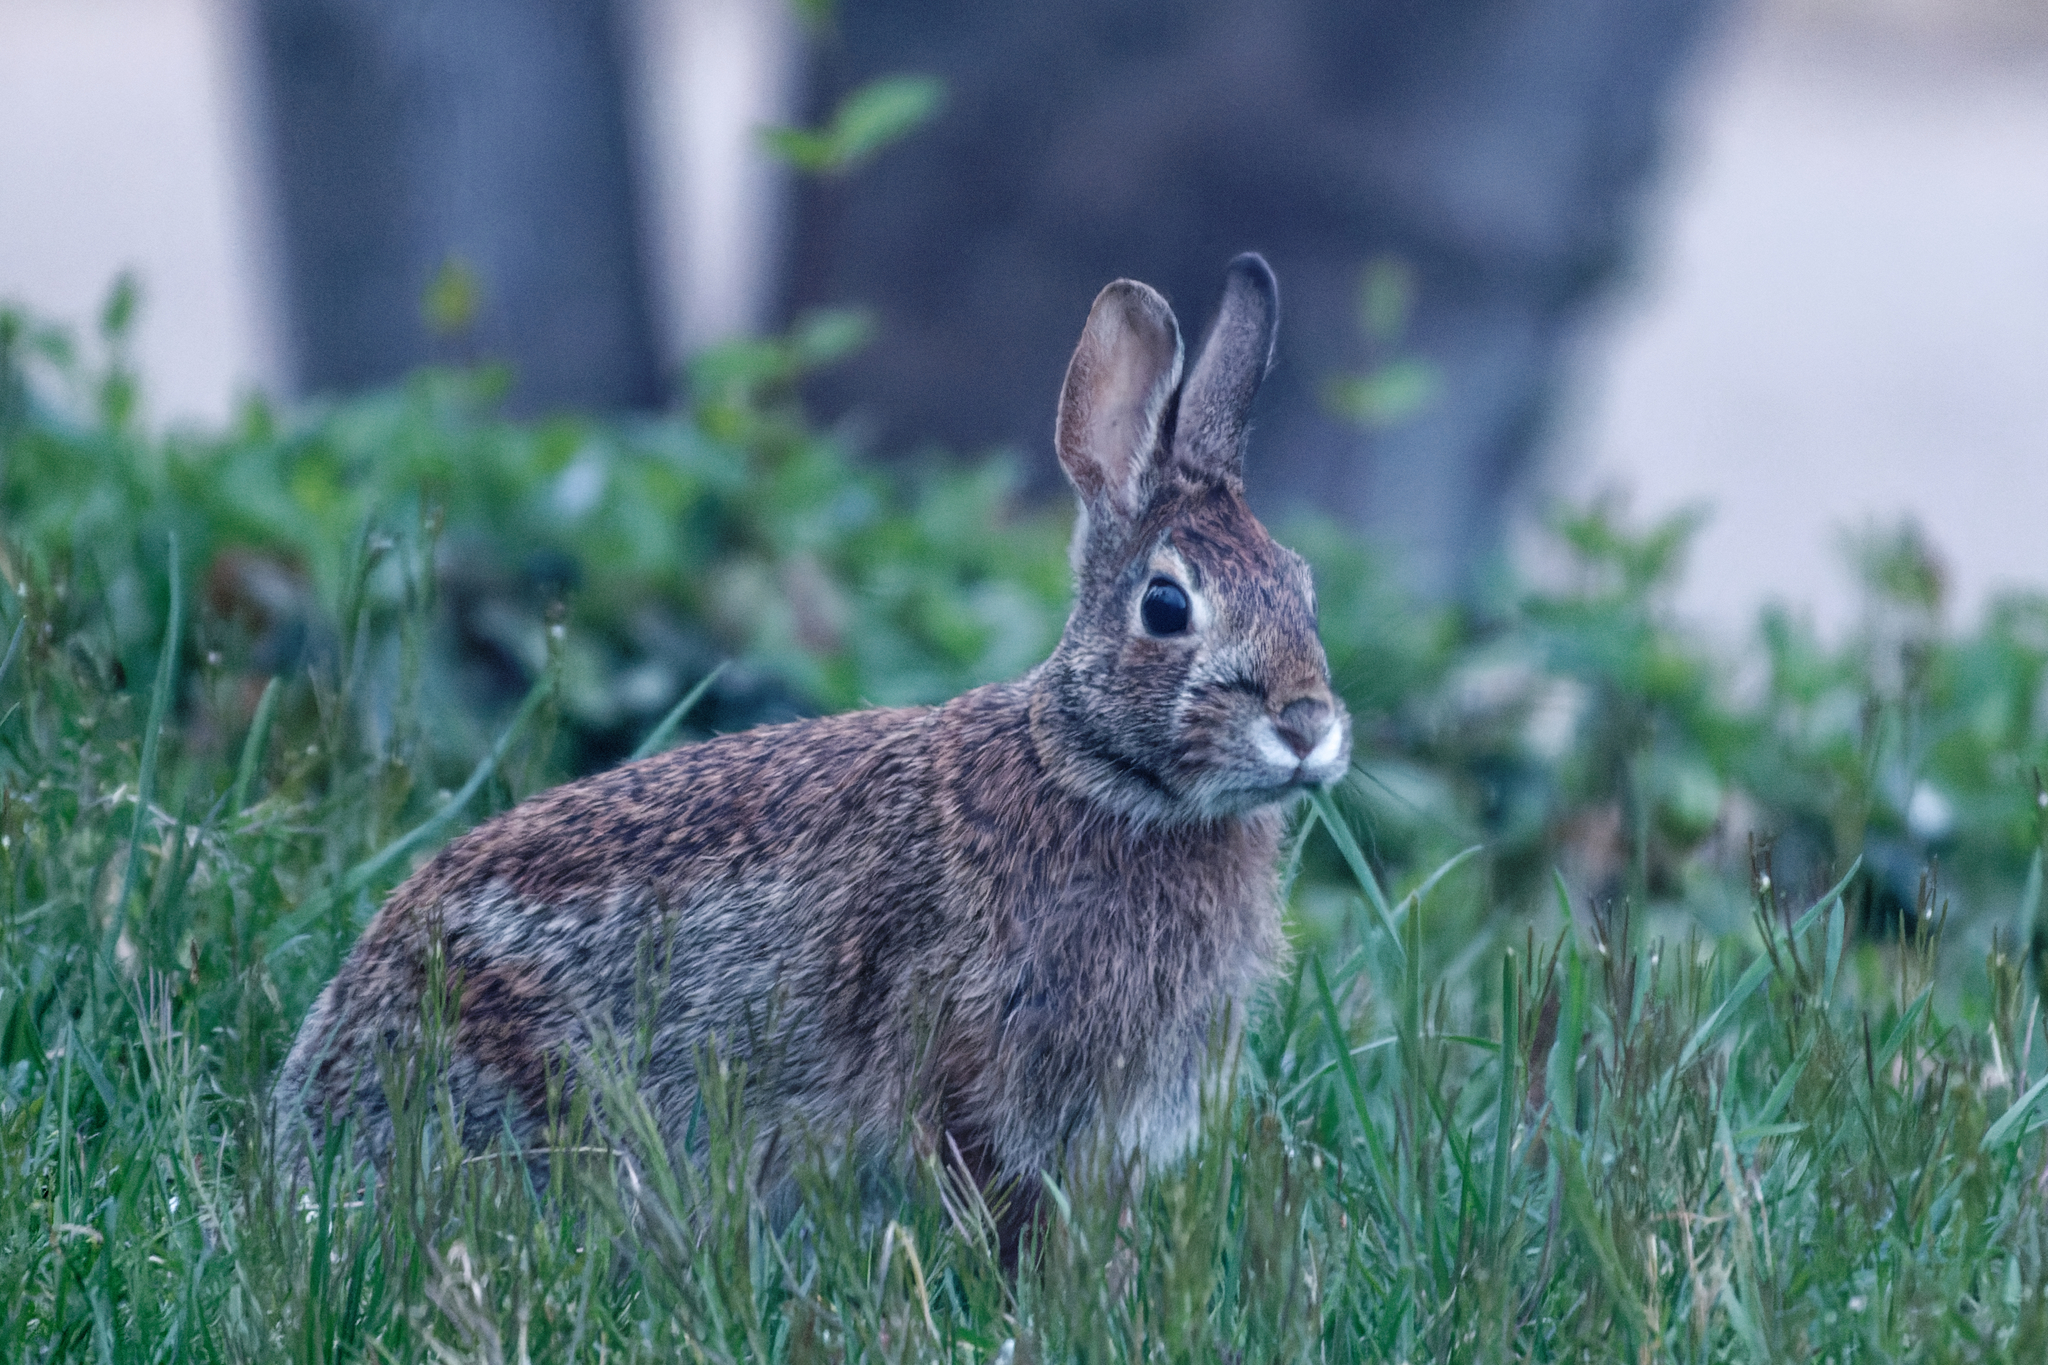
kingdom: Animalia
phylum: Chordata
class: Mammalia
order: Lagomorpha
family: Leporidae
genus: Sylvilagus
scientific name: Sylvilagus floridanus
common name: Eastern cottontail
